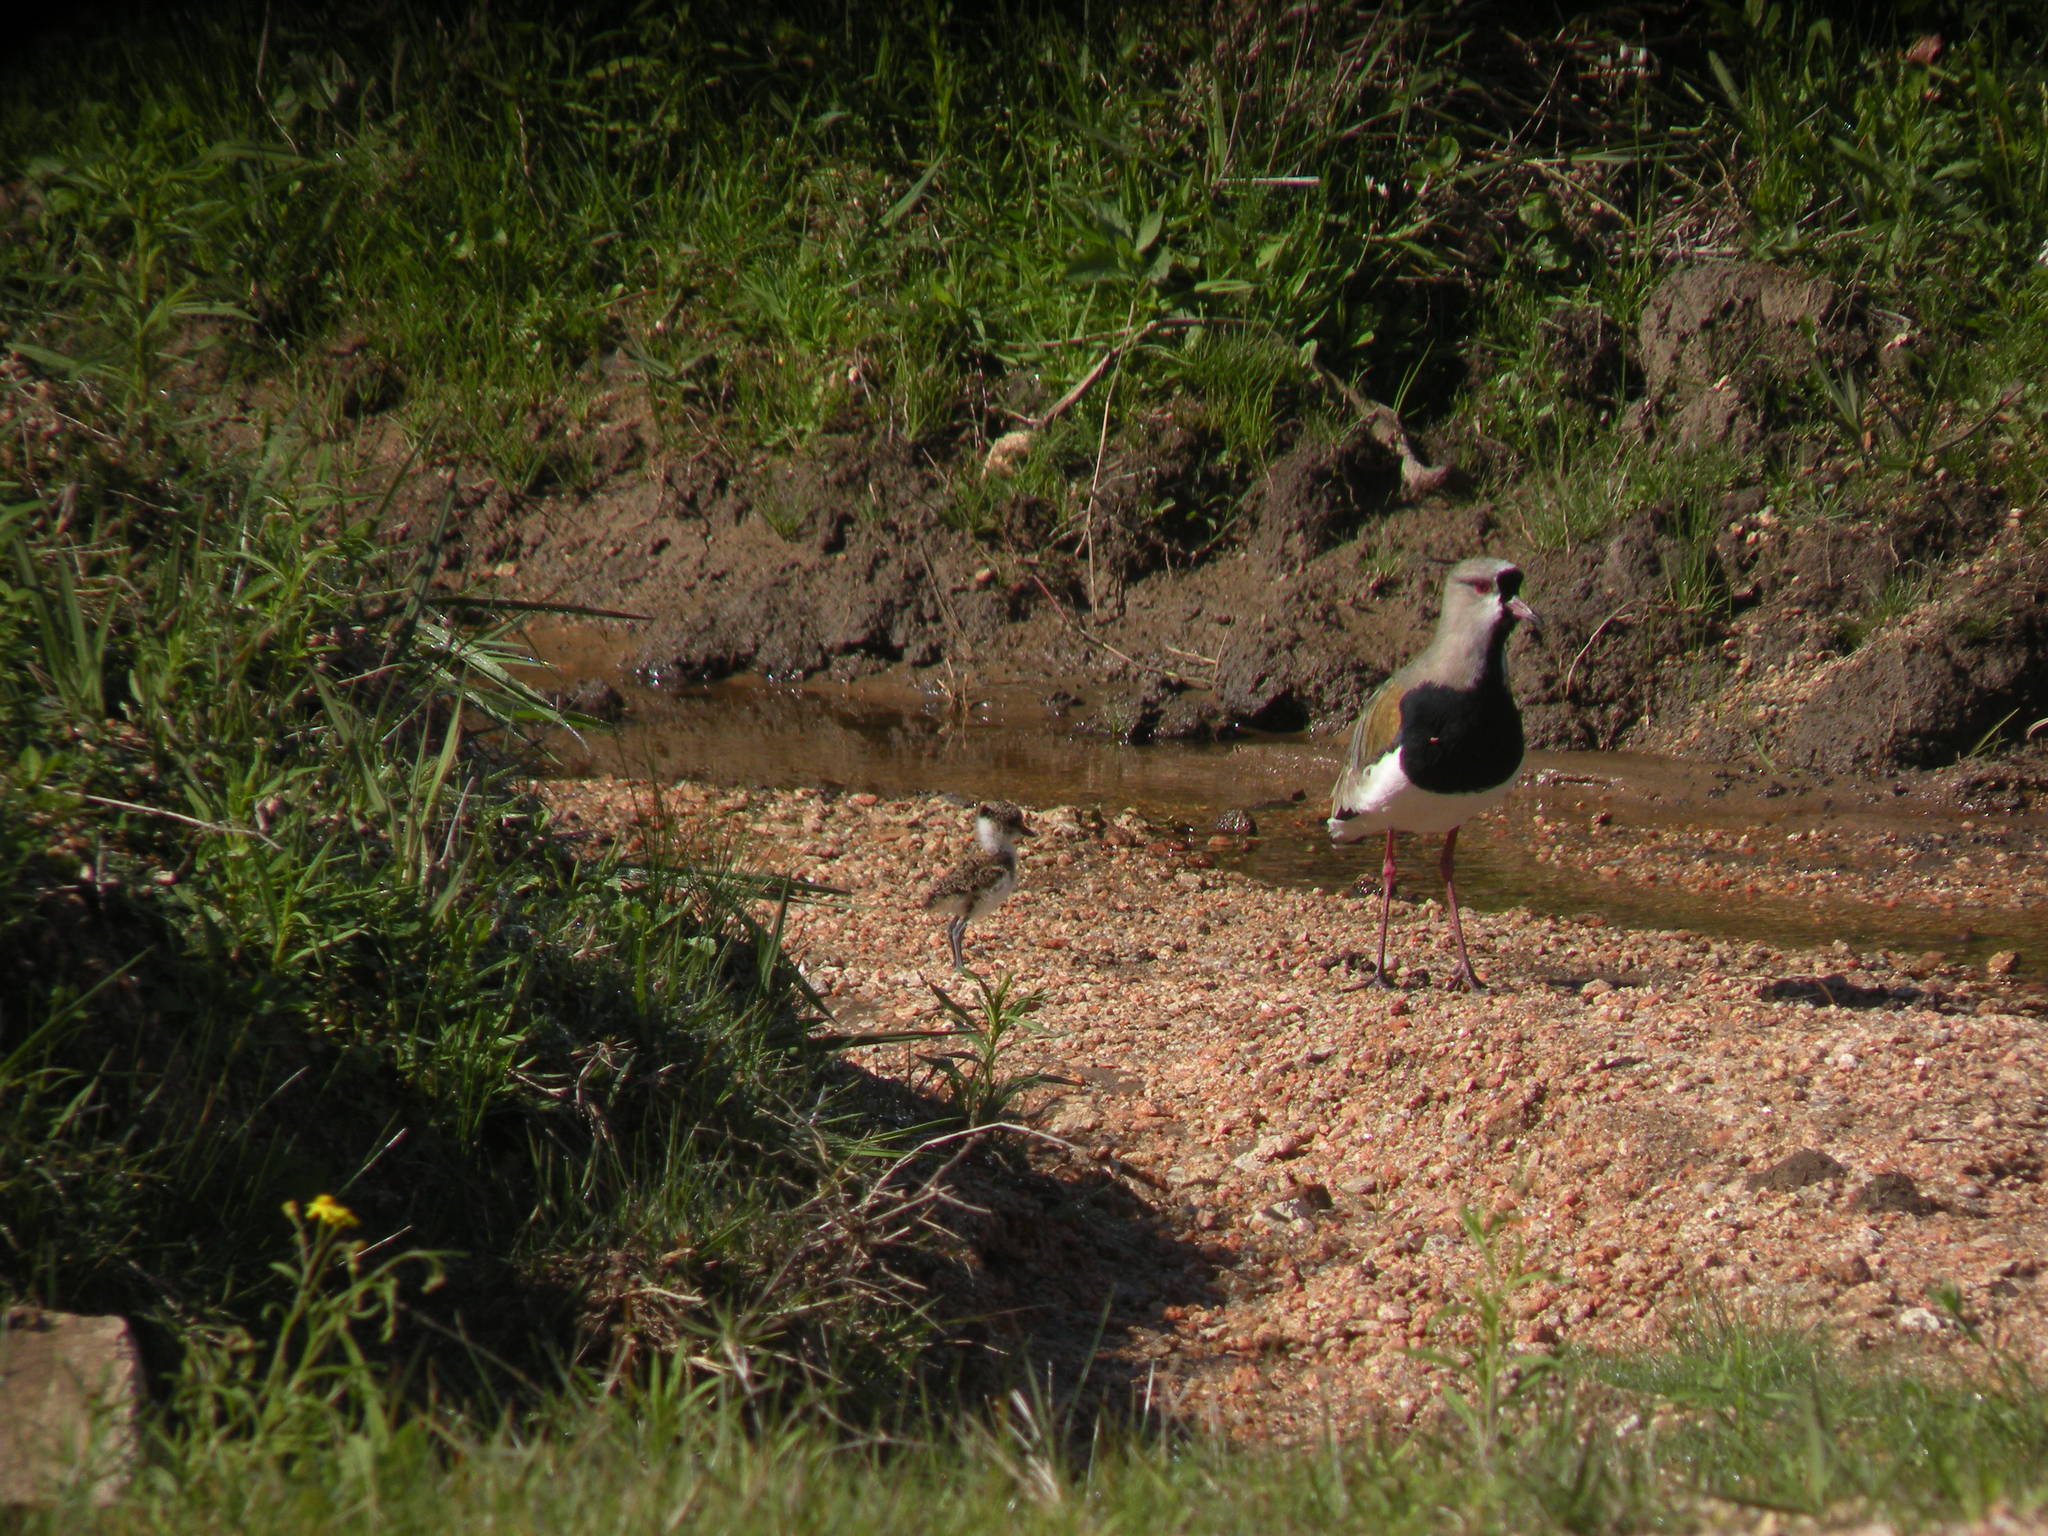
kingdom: Animalia
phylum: Chordata
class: Aves
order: Charadriiformes
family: Charadriidae
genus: Vanellus
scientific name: Vanellus chilensis
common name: Southern lapwing
